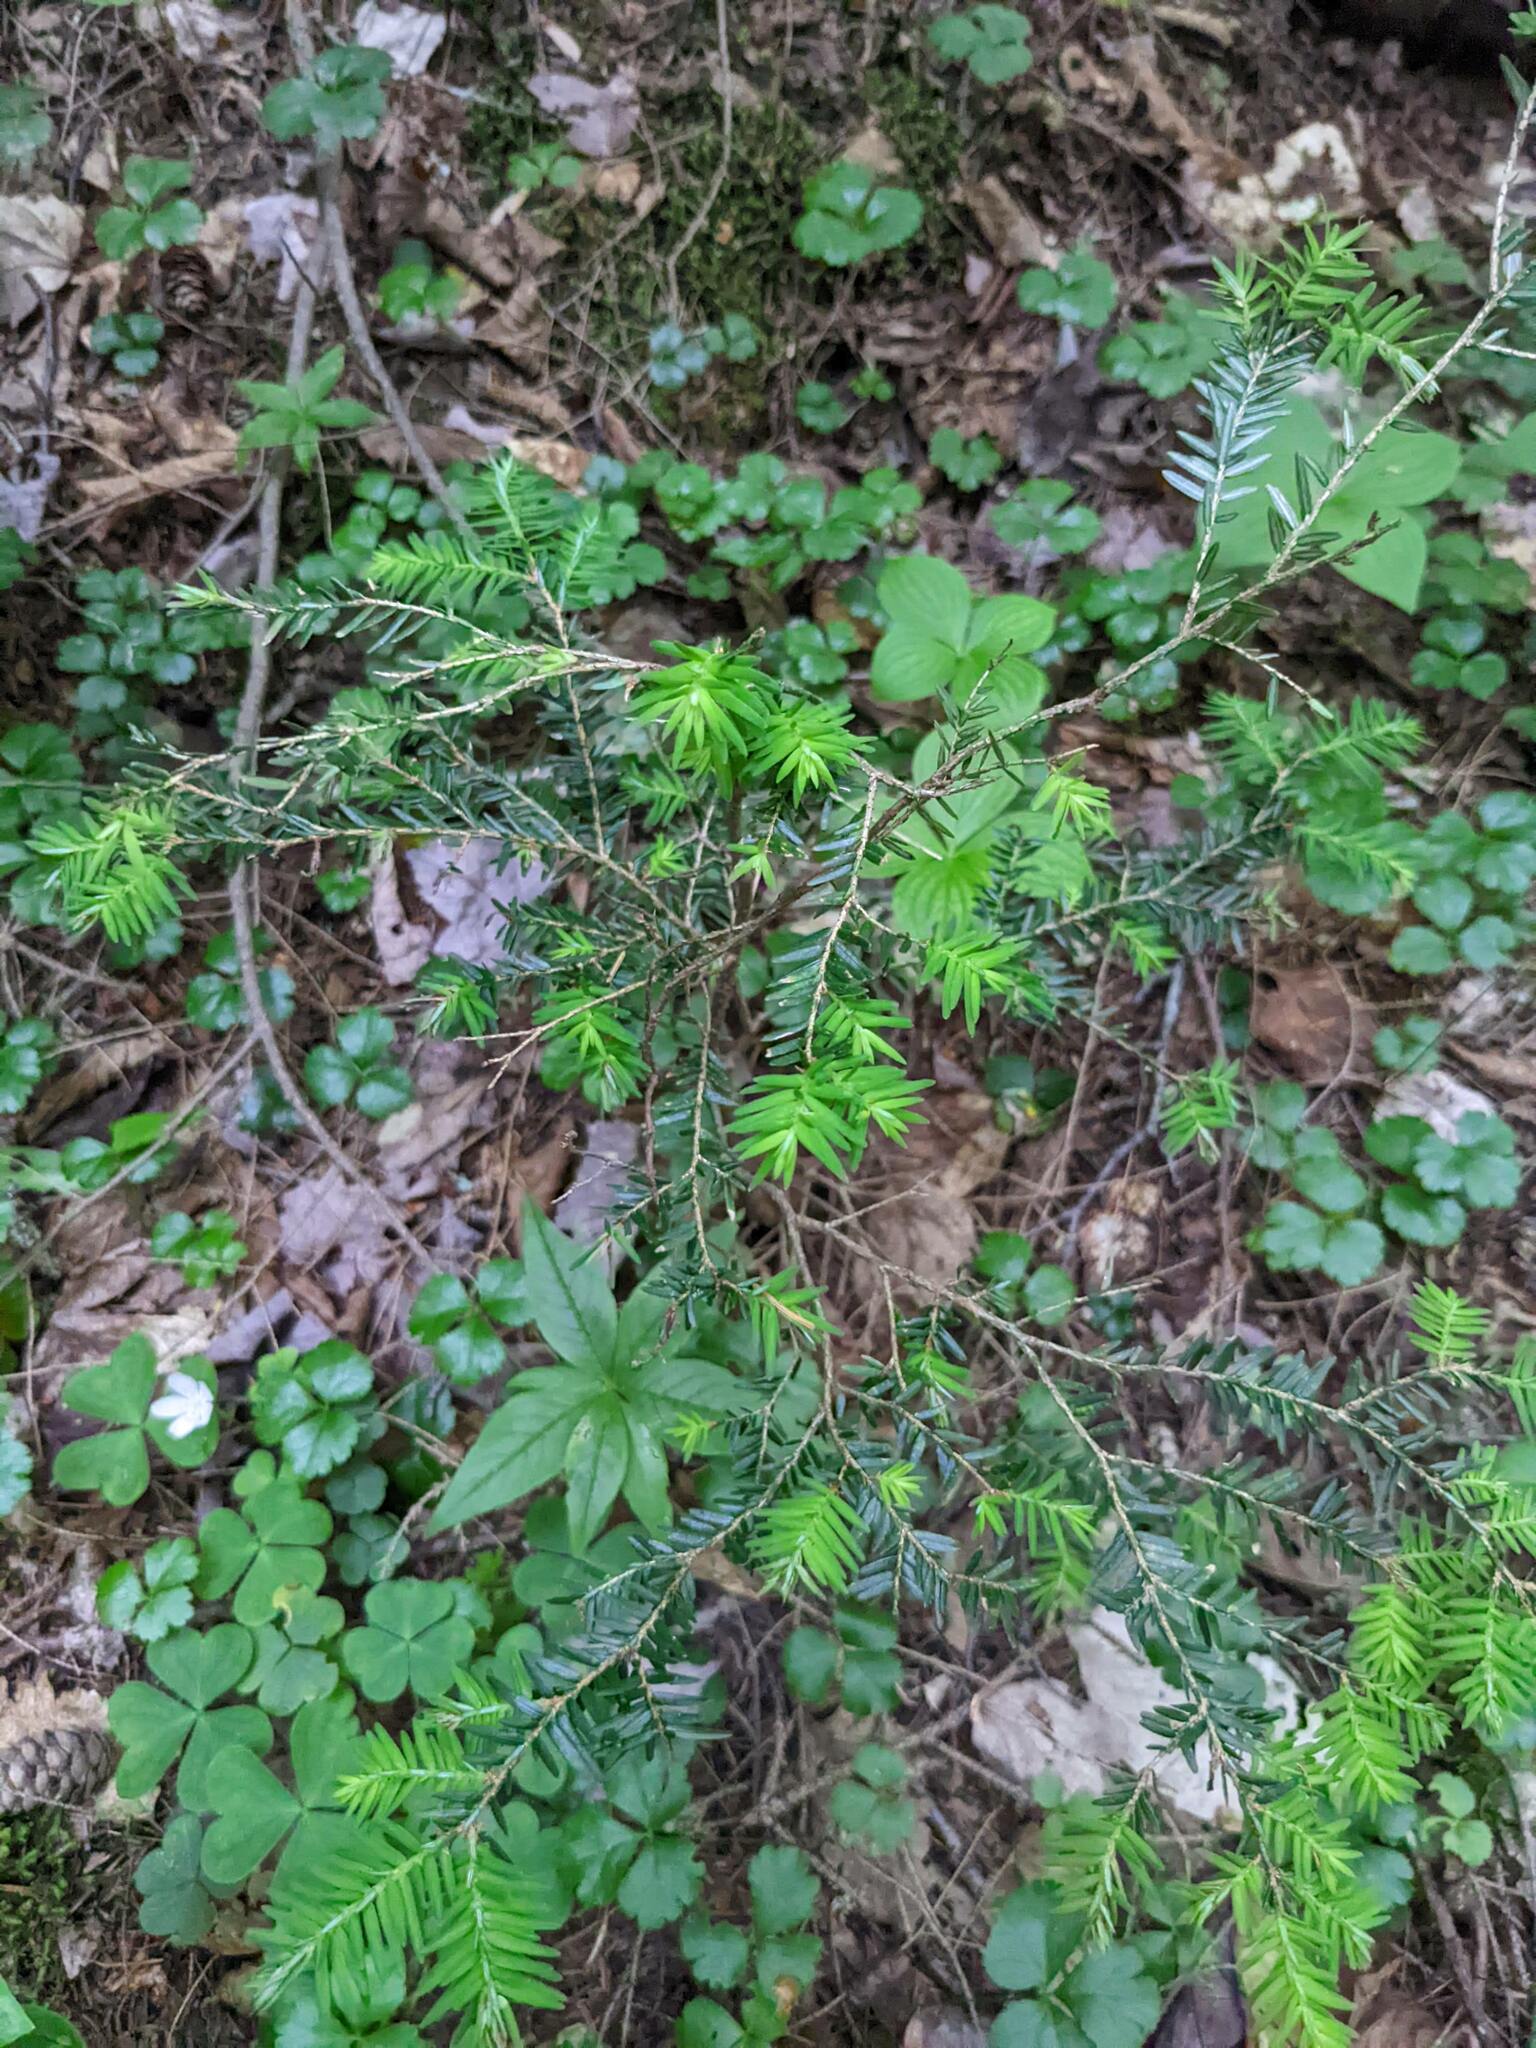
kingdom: Plantae
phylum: Tracheophyta
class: Pinopsida
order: Pinales
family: Pinaceae
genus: Tsuga
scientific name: Tsuga canadensis
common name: Eastern hemlock
